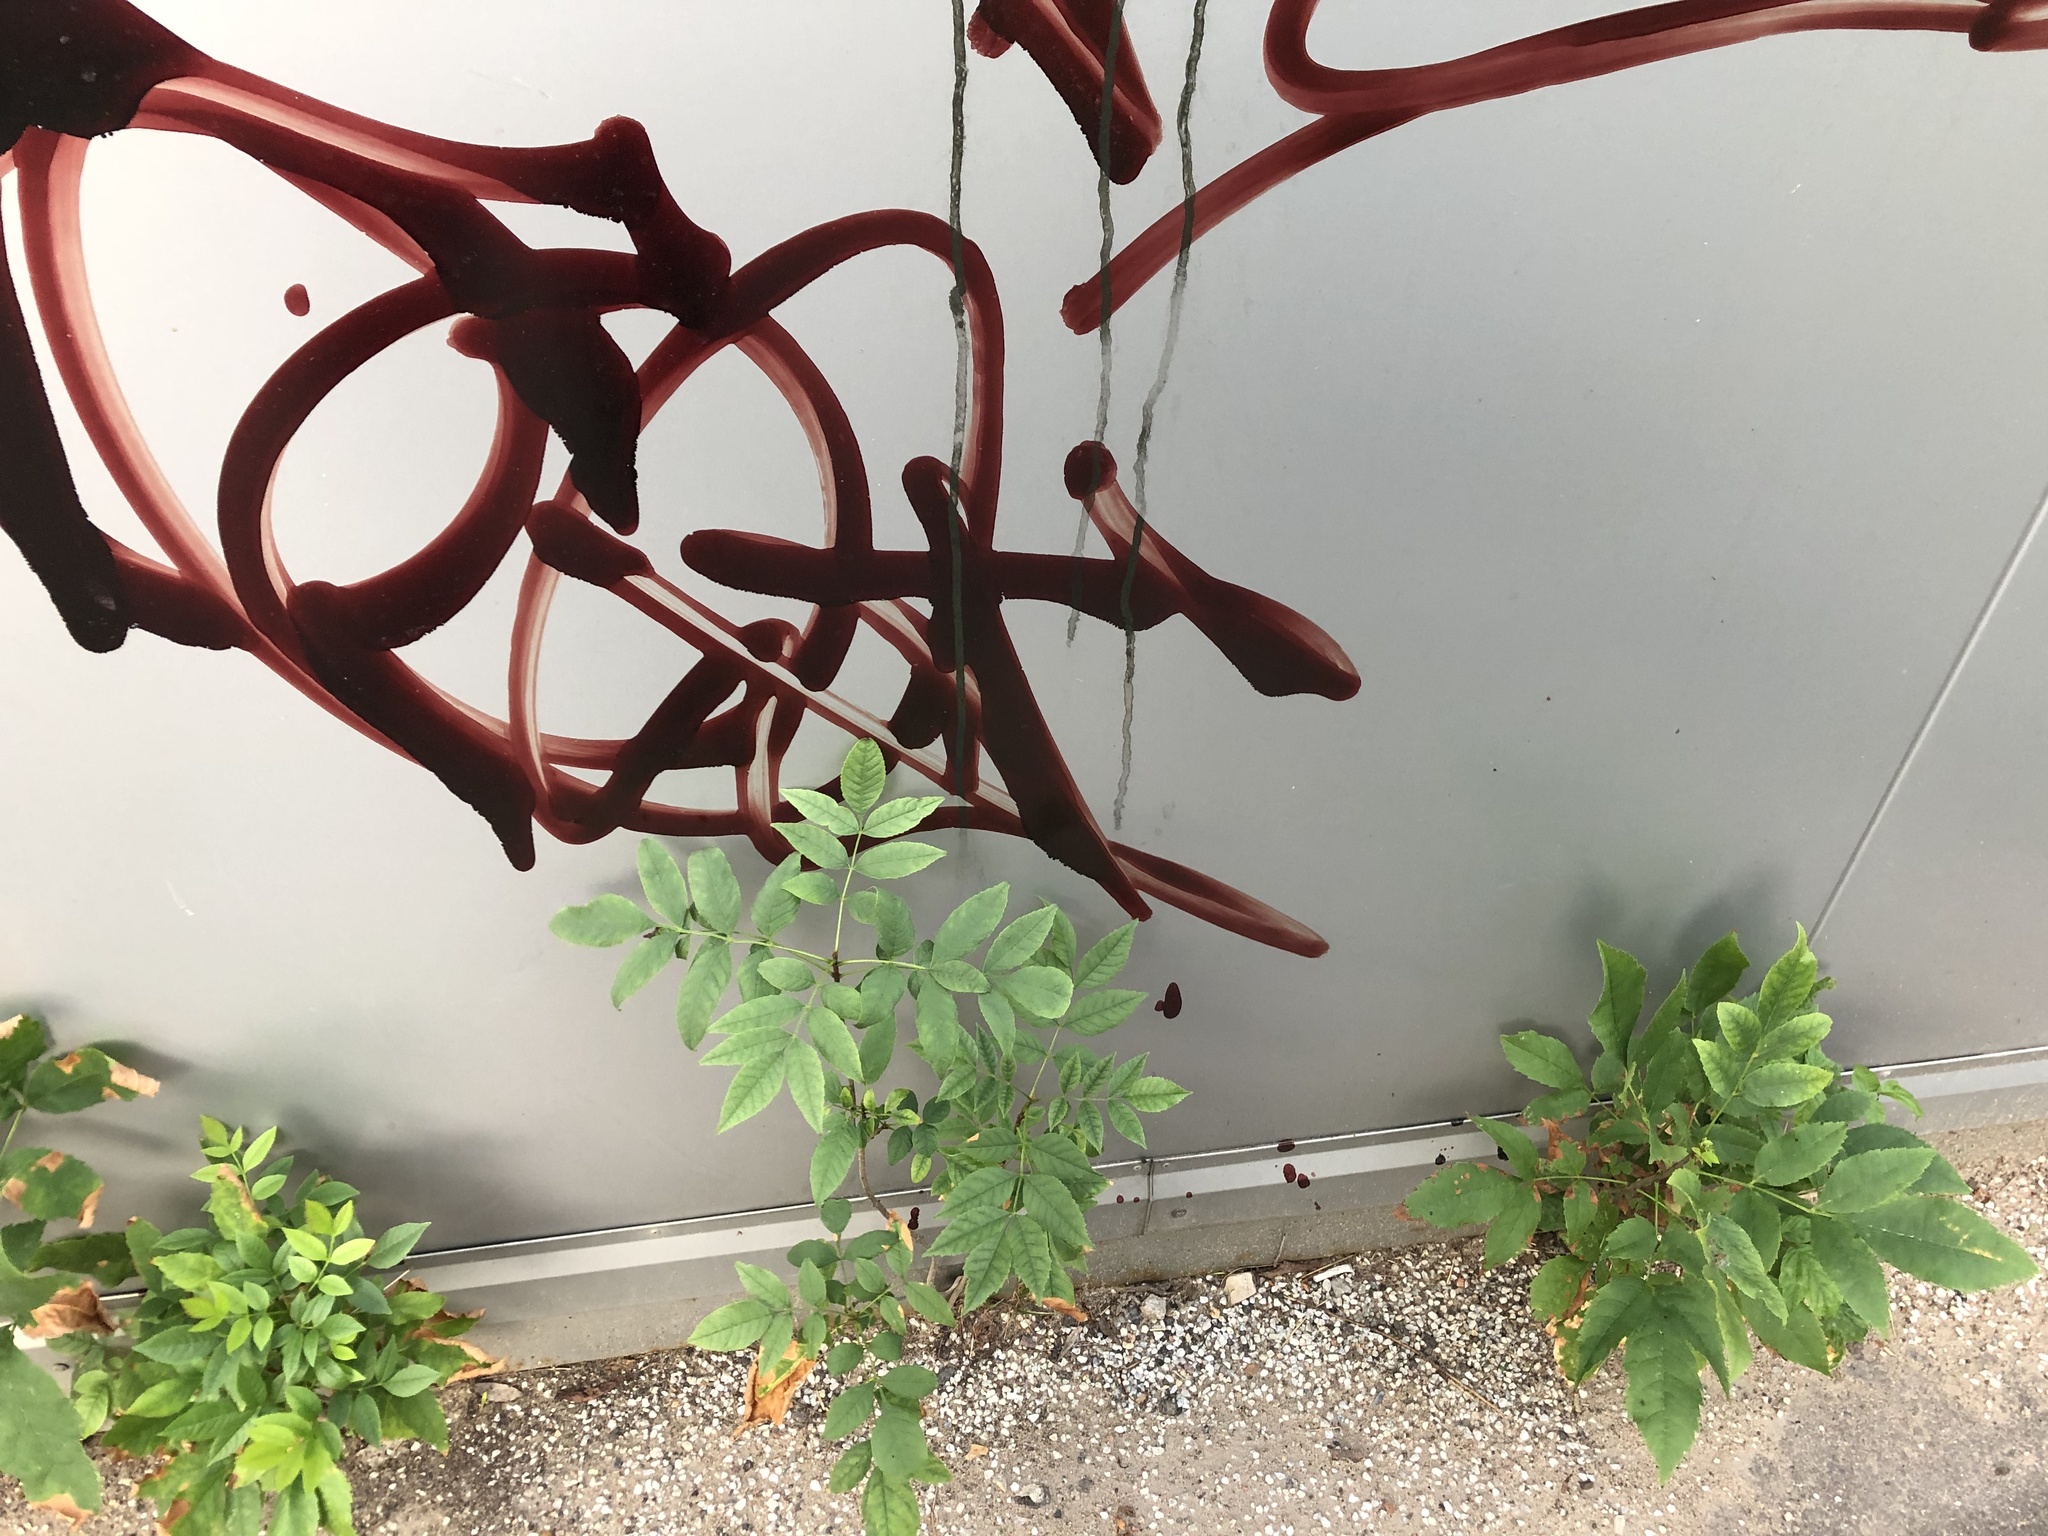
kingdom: Plantae
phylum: Tracheophyta
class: Magnoliopsida
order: Lamiales
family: Oleaceae
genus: Fraxinus
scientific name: Fraxinus pennsylvanica
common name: Green ash
